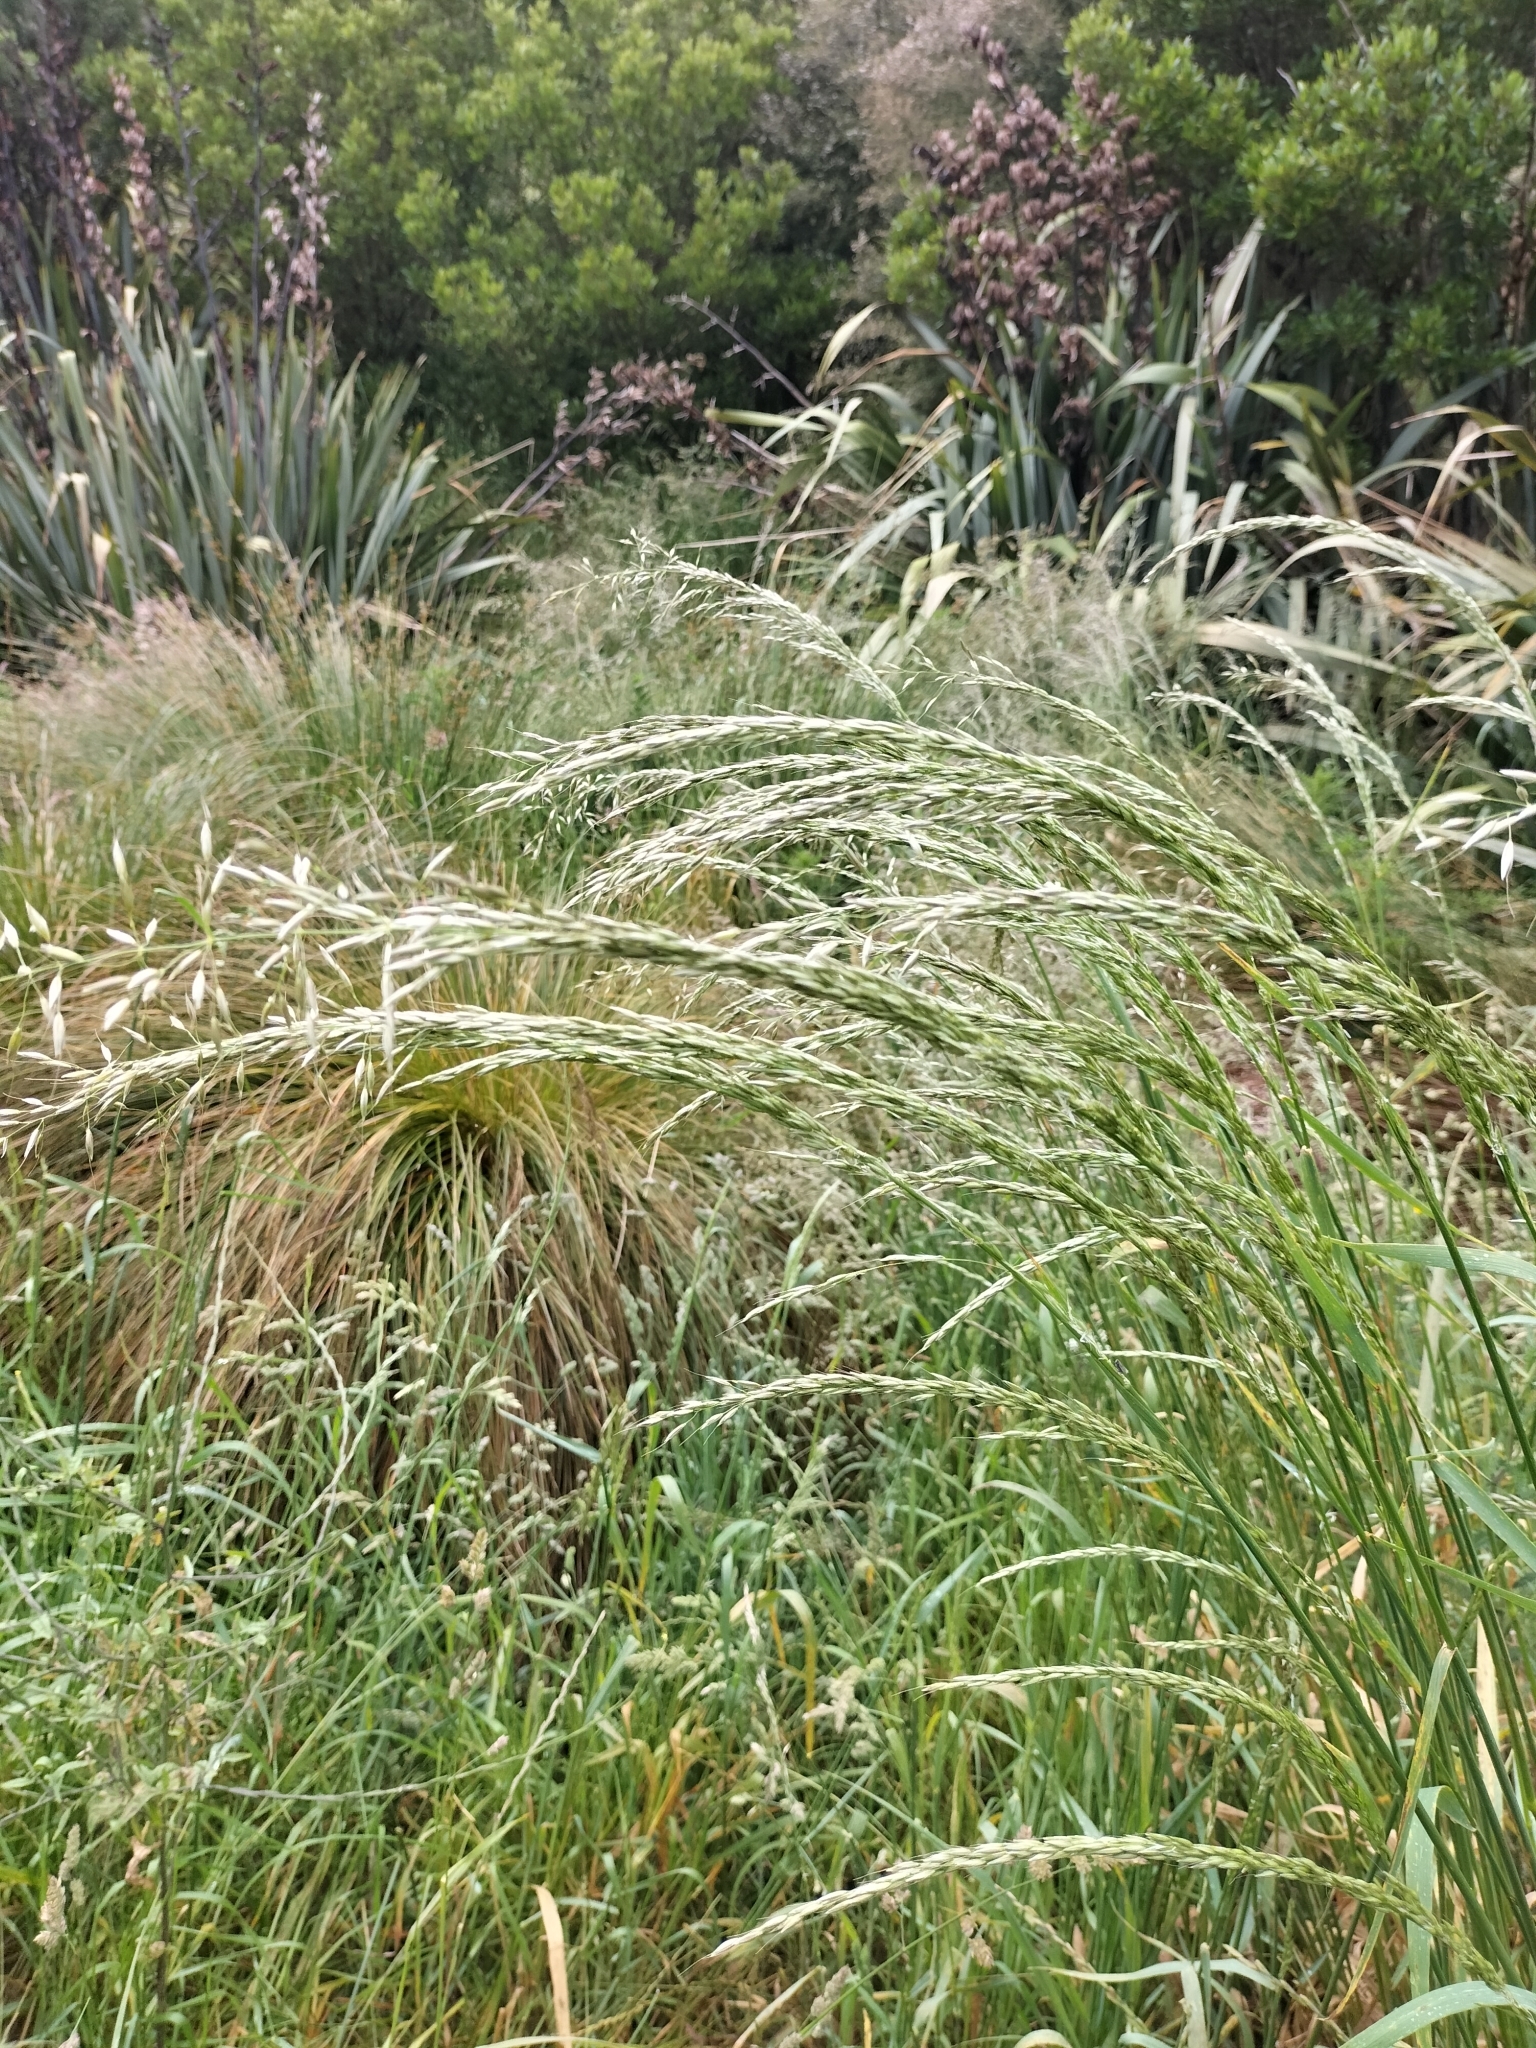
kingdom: Plantae
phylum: Tracheophyta
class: Liliopsida
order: Poales
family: Poaceae
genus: Arrhenatherum
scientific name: Arrhenatherum elatius
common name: Tall oatgrass
